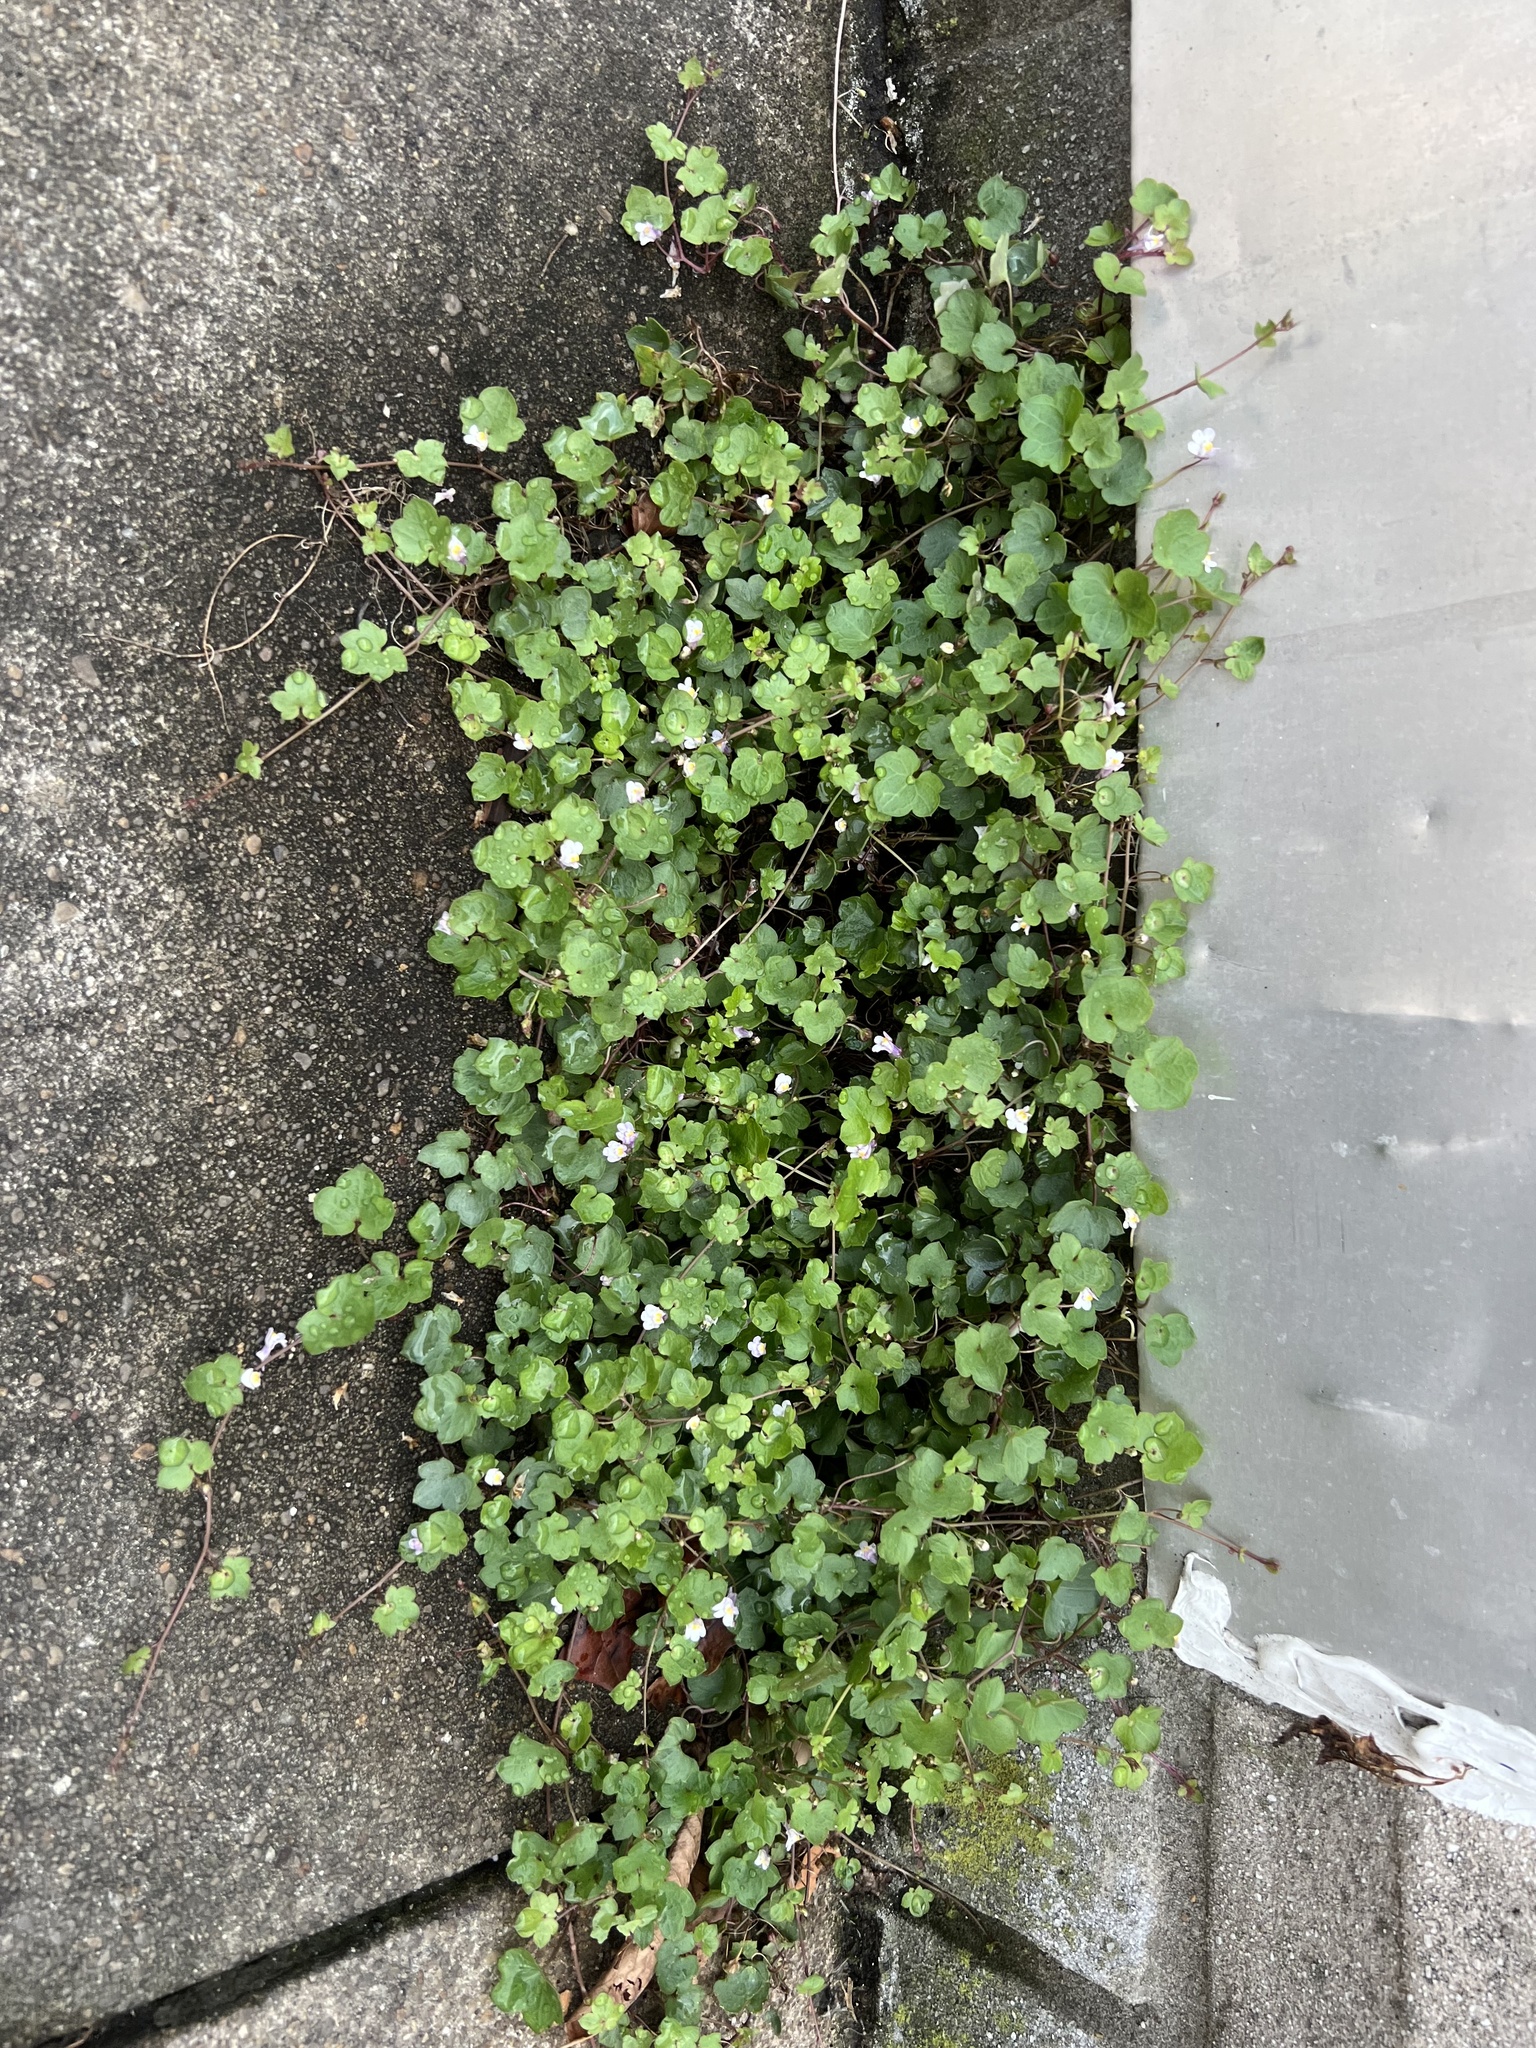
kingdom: Plantae
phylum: Tracheophyta
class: Magnoliopsida
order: Lamiales
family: Plantaginaceae
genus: Cymbalaria
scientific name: Cymbalaria muralis
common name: Ivy-leaved toadflax
